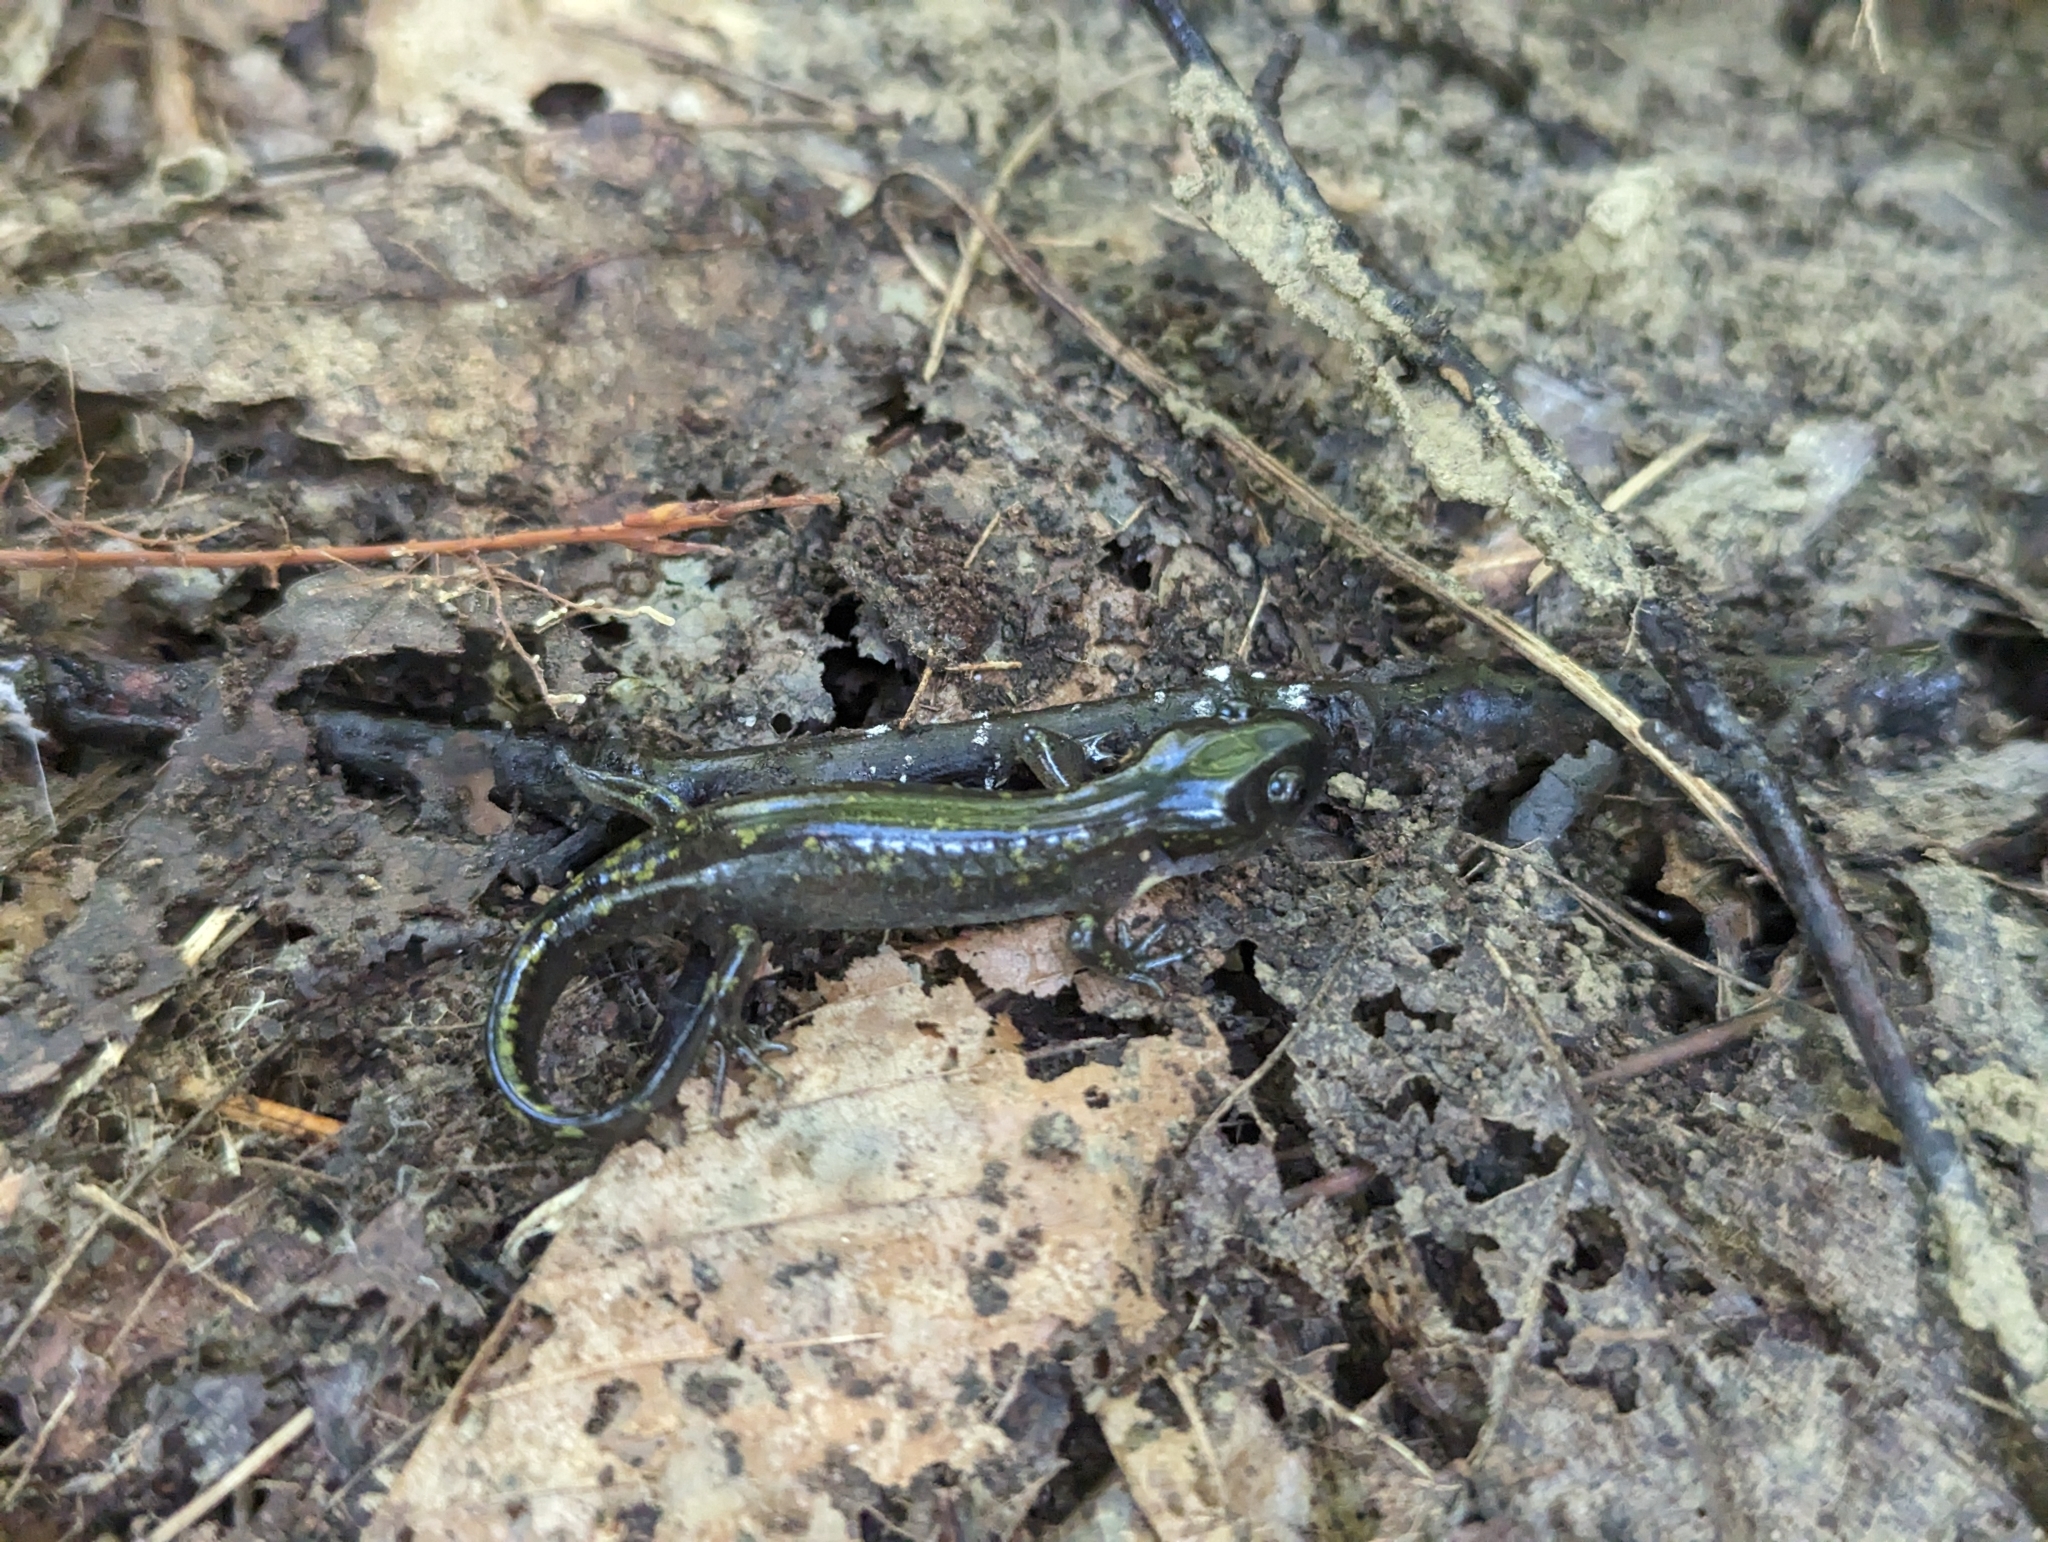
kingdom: Animalia
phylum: Chordata
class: Amphibia
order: Caudata
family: Ambystomatidae
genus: Ambystoma
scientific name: Ambystoma maculatum
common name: Spotted salamander
